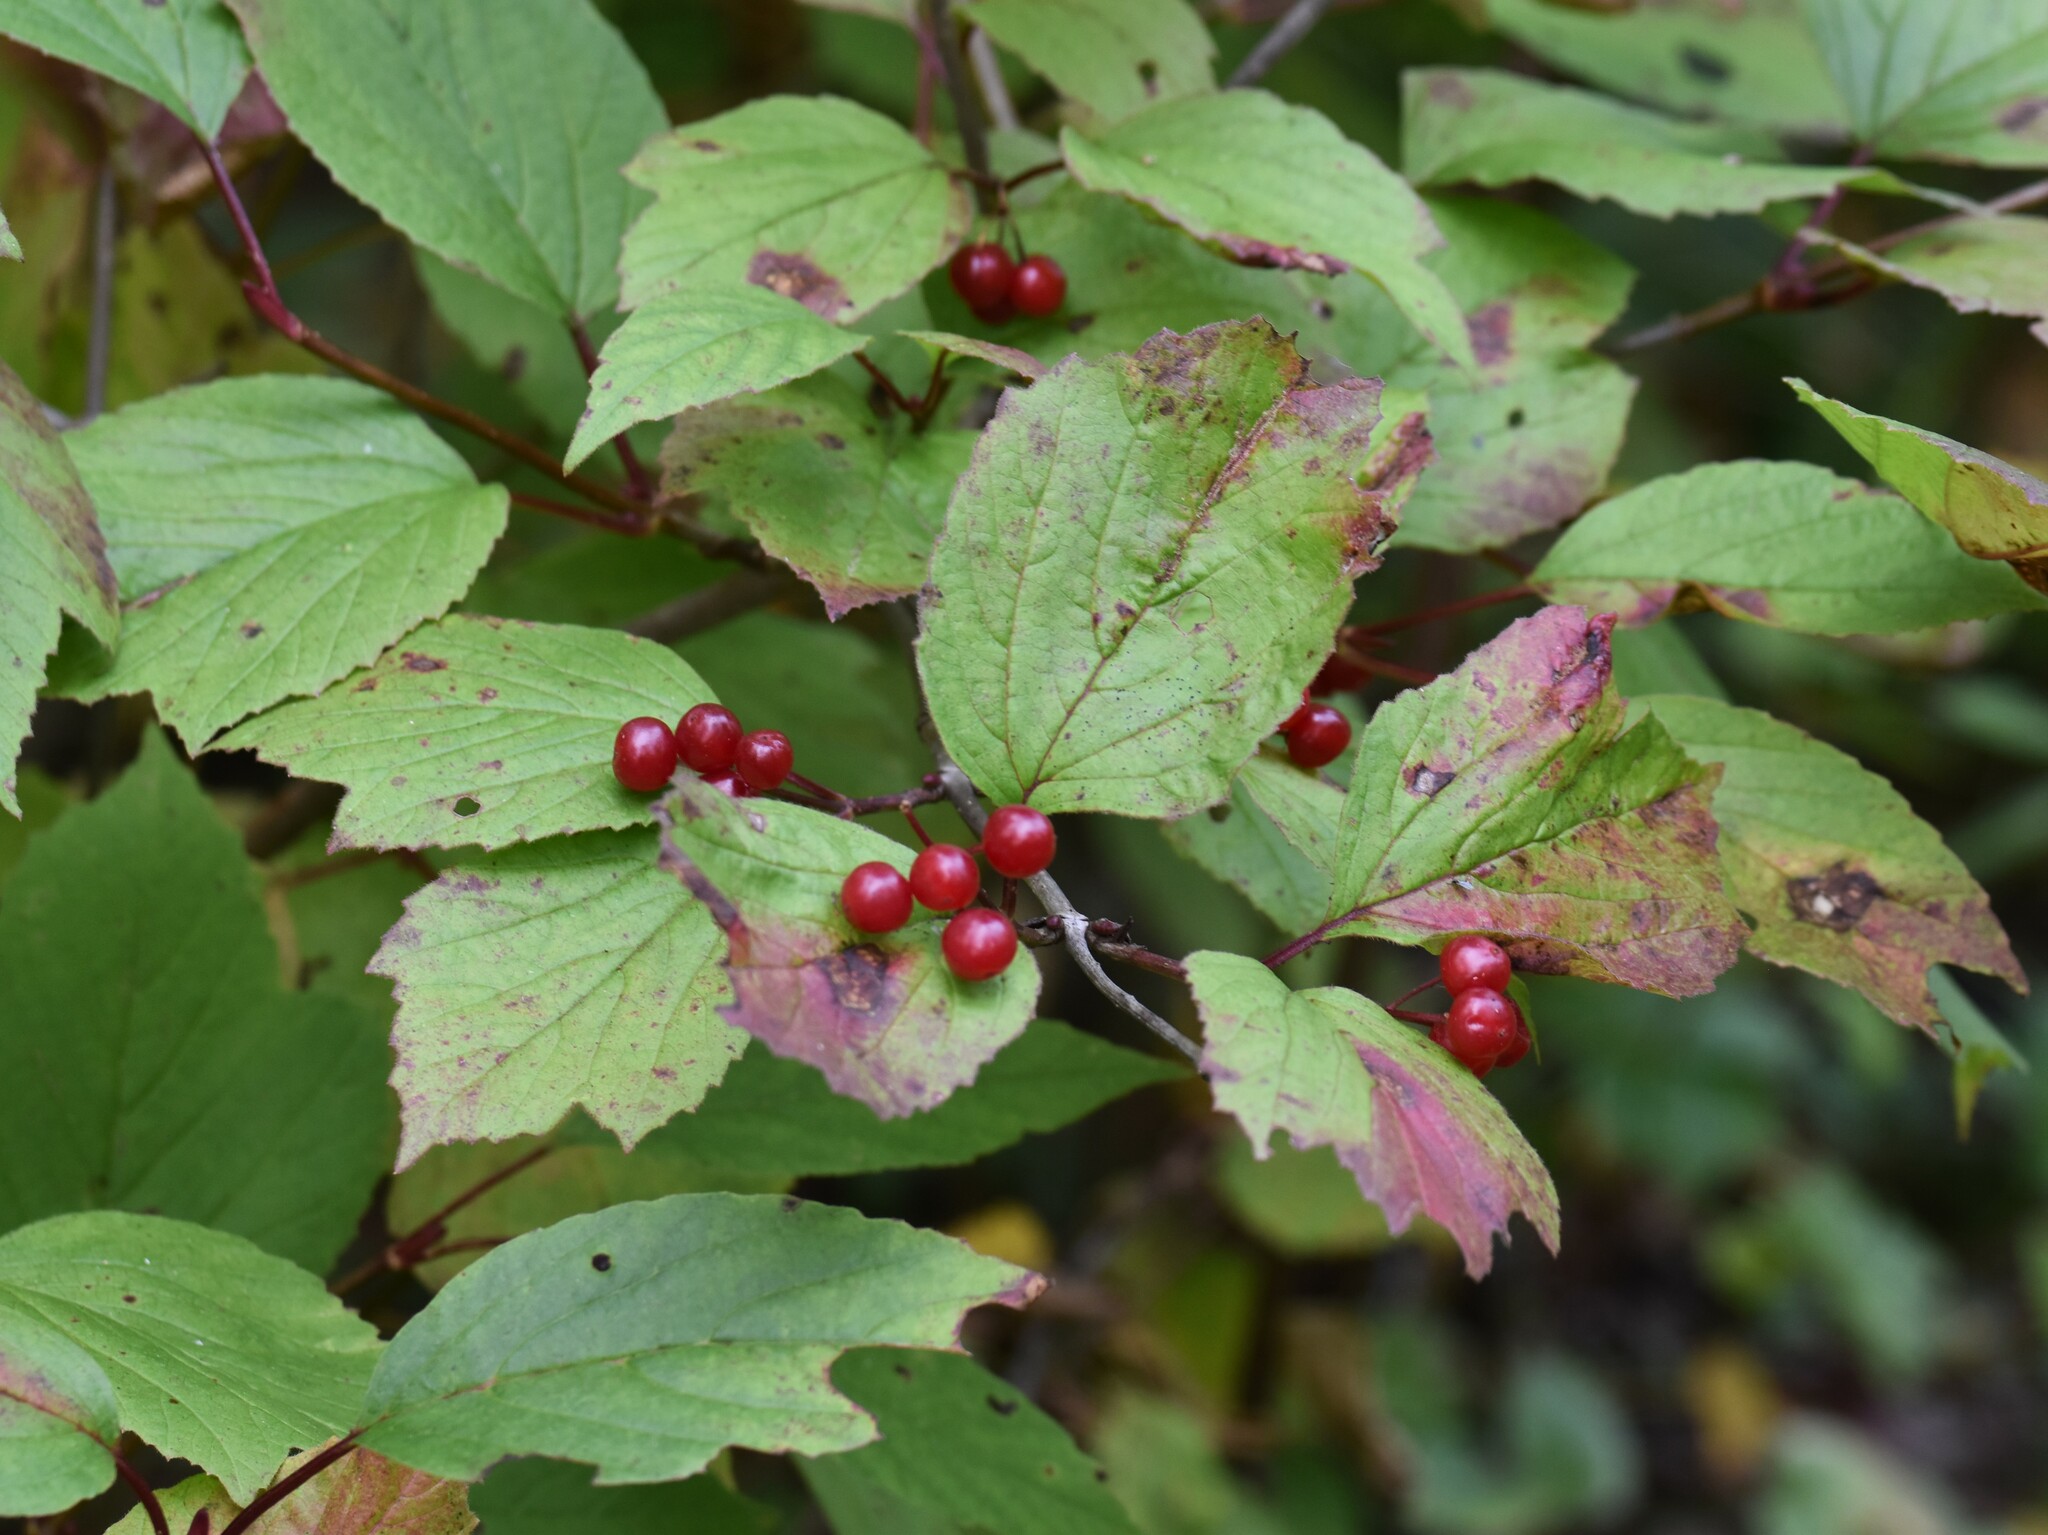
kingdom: Plantae
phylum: Tracheophyta
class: Magnoliopsida
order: Dipsacales
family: Viburnaceae
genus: Viburnum
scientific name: Viburnum edule
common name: Mooseberry
